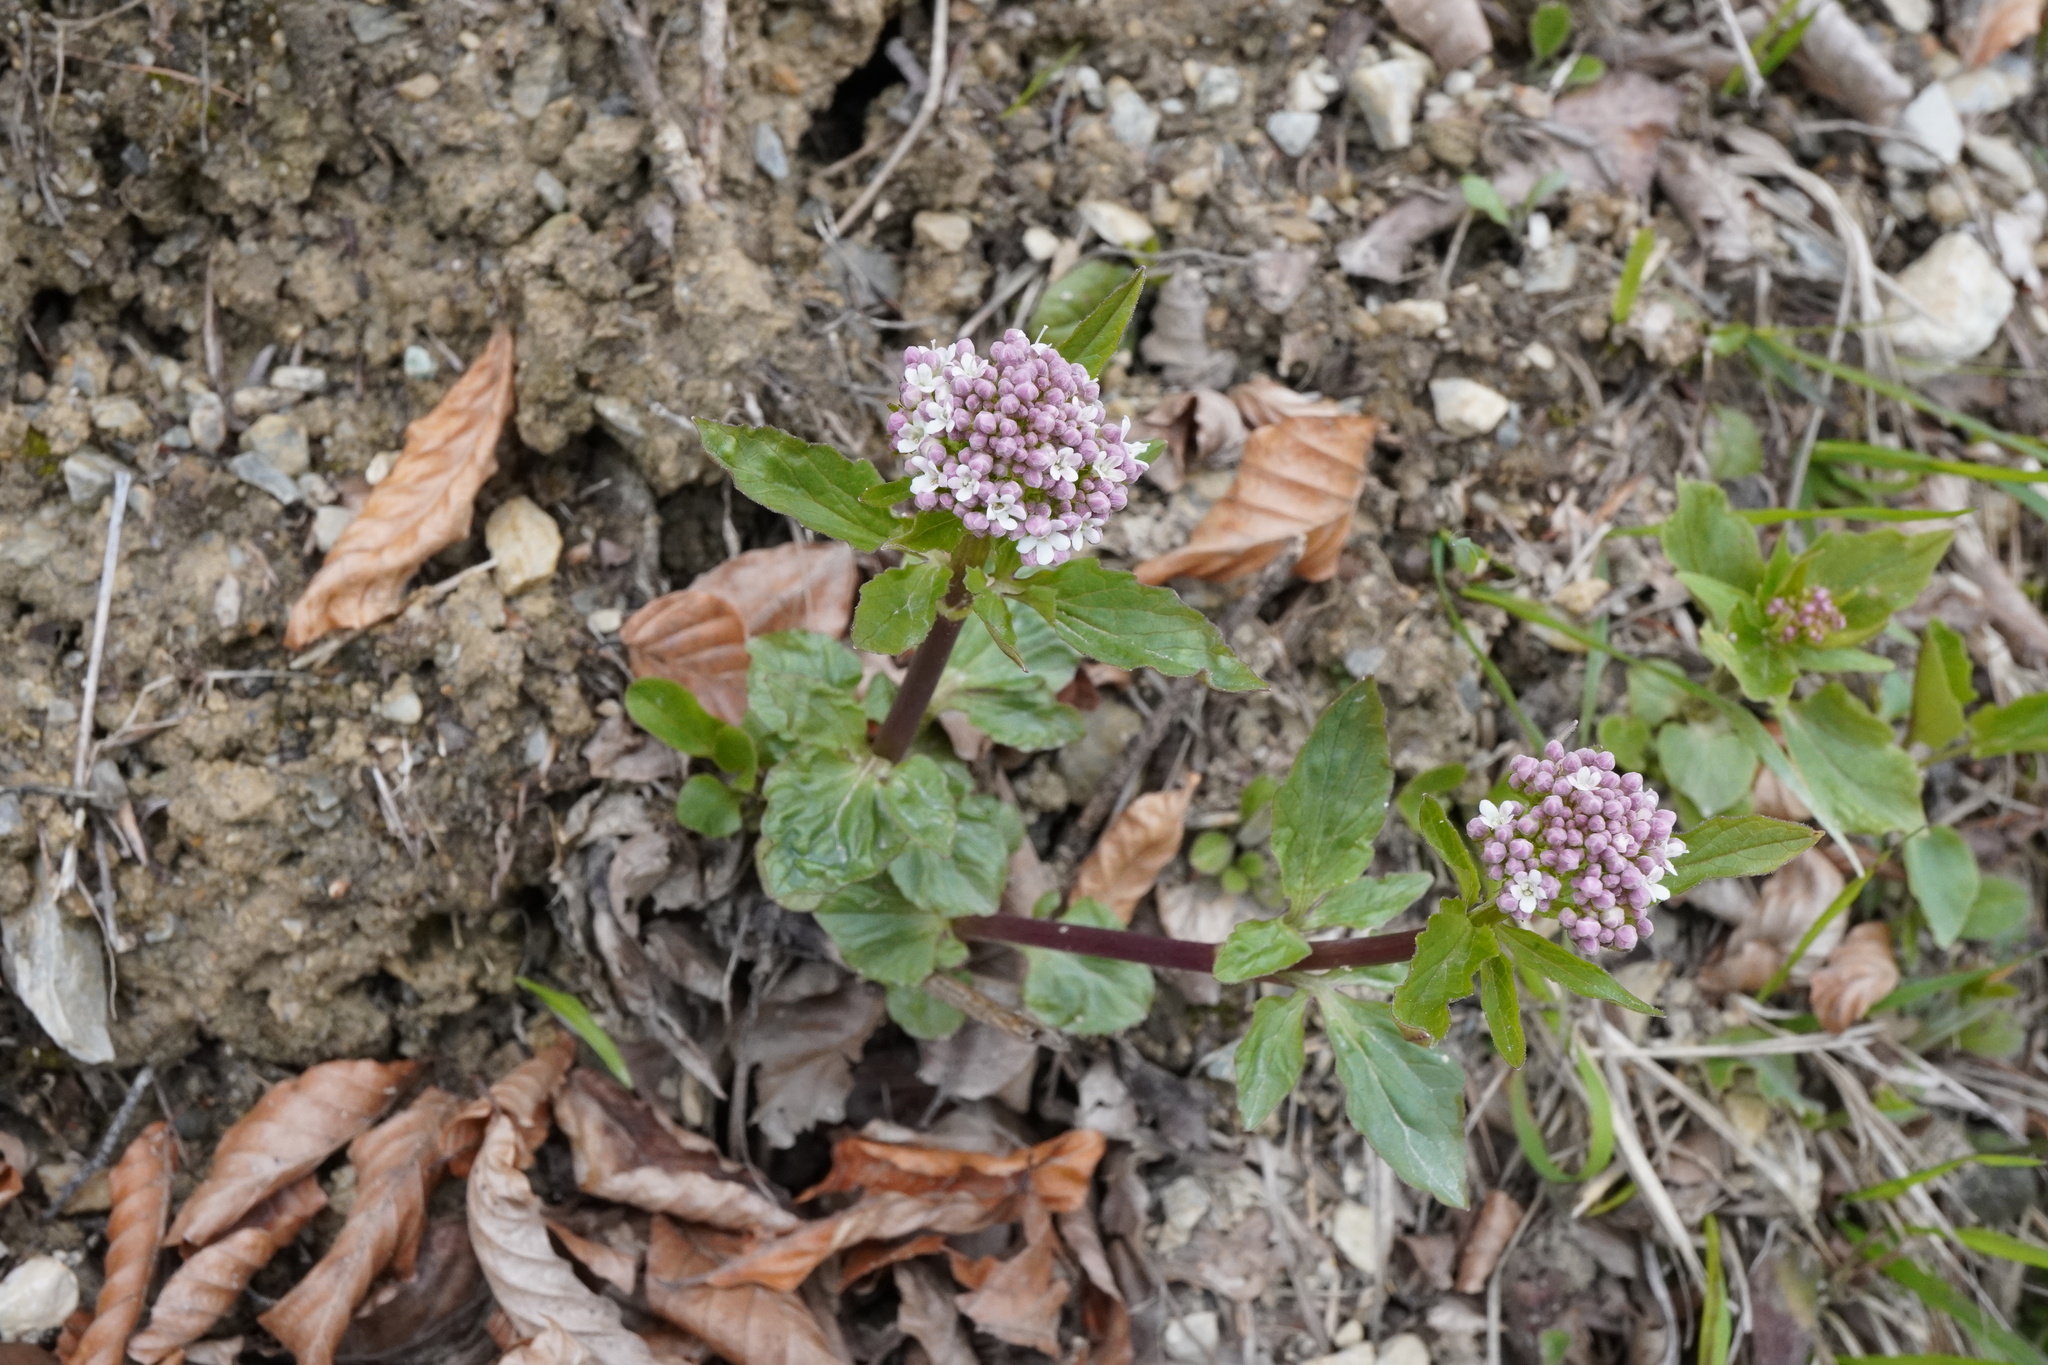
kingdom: Plantae
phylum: Tracheophyta
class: Magnoliopsida
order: Dipsacales
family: Caprifoliaceae
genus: Valeriana
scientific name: Valeriana tripteris
